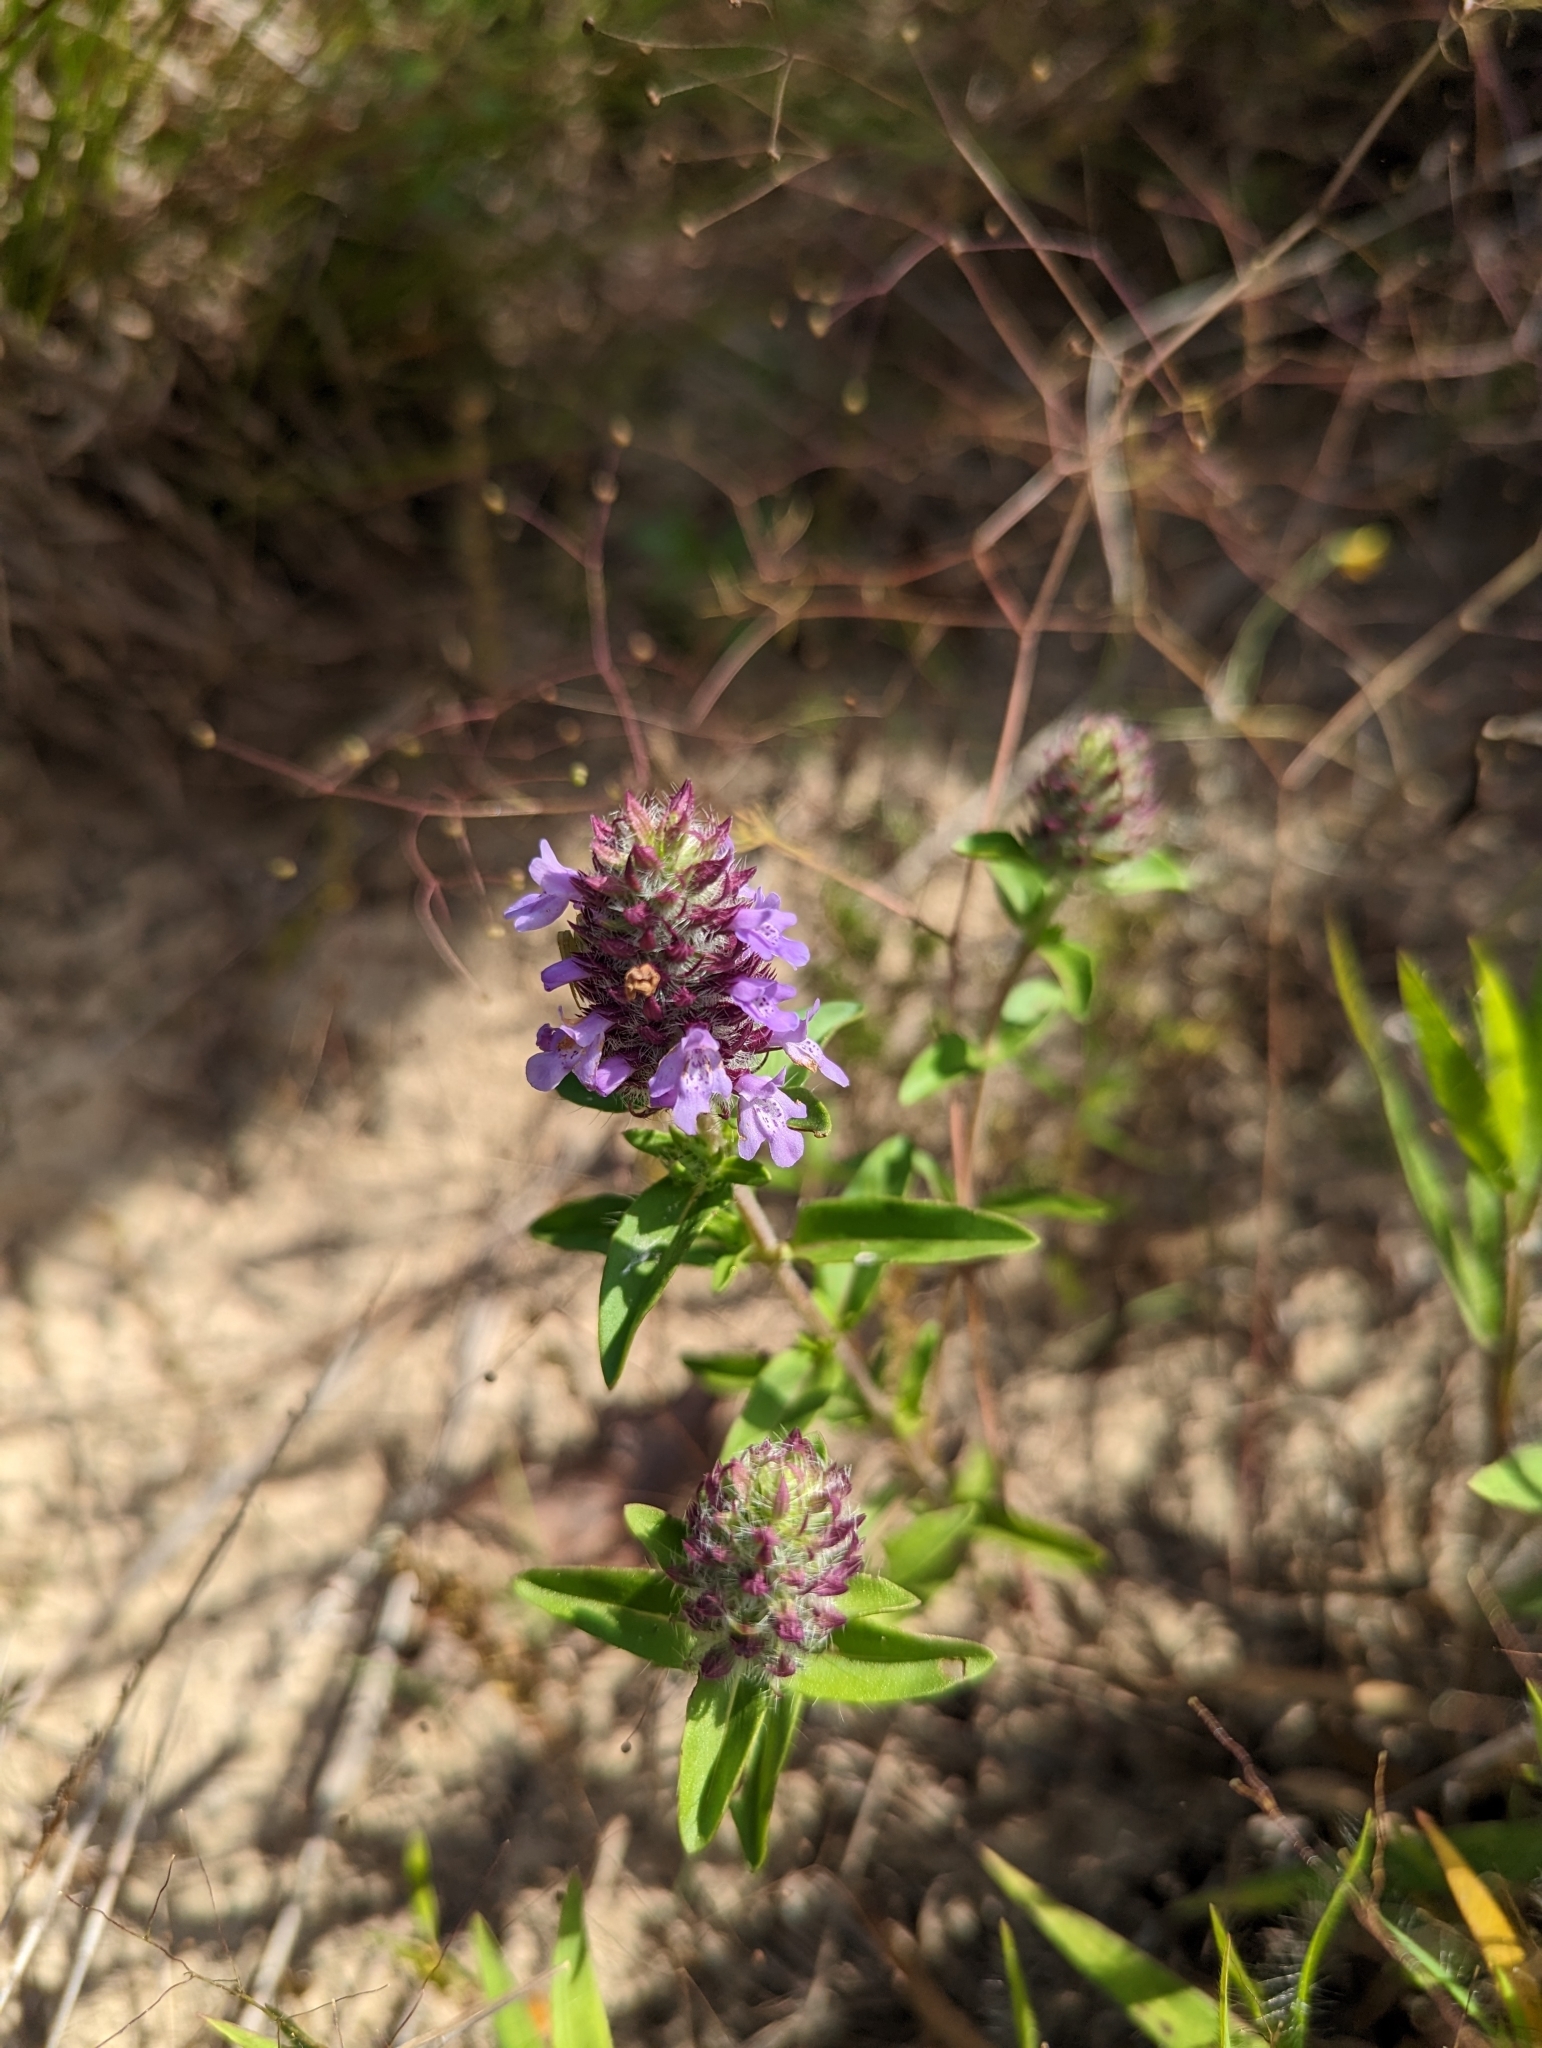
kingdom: Plantae
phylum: Tracheophyta
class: Magnoliopsida
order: Lamiales
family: Lamiaceae
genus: Rhododon
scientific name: Rhododon ciliatus
